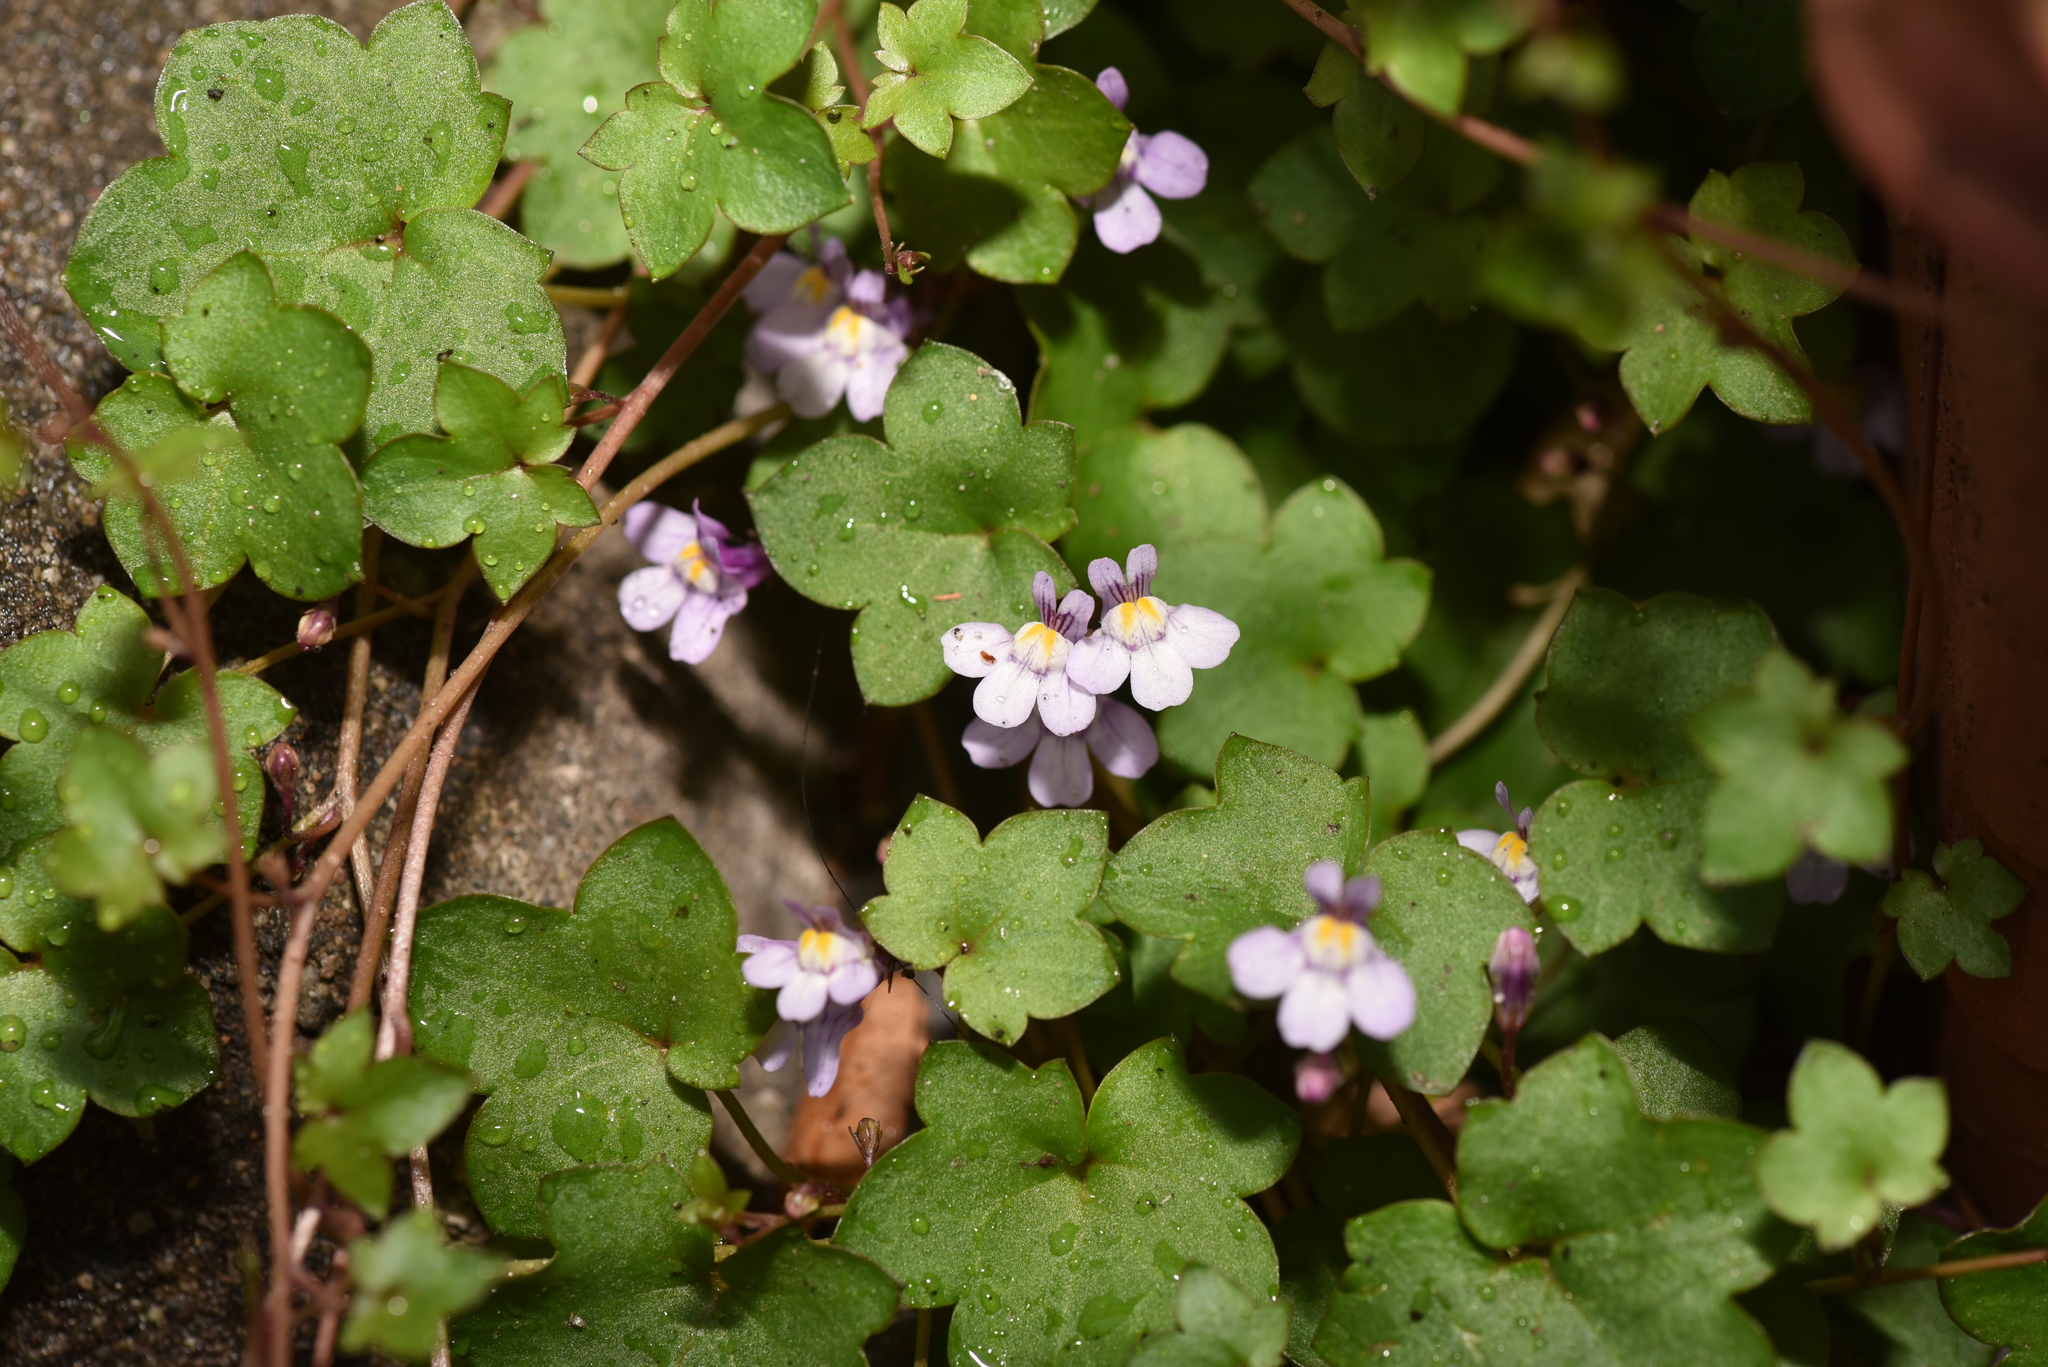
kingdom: Plantae
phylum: Tracheophyta
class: Magnoliopsida
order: Lamiales
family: Plantaginaceae
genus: Cymbalaria
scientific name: Cymbalaria muralis
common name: Ivy-leaved toadflax
